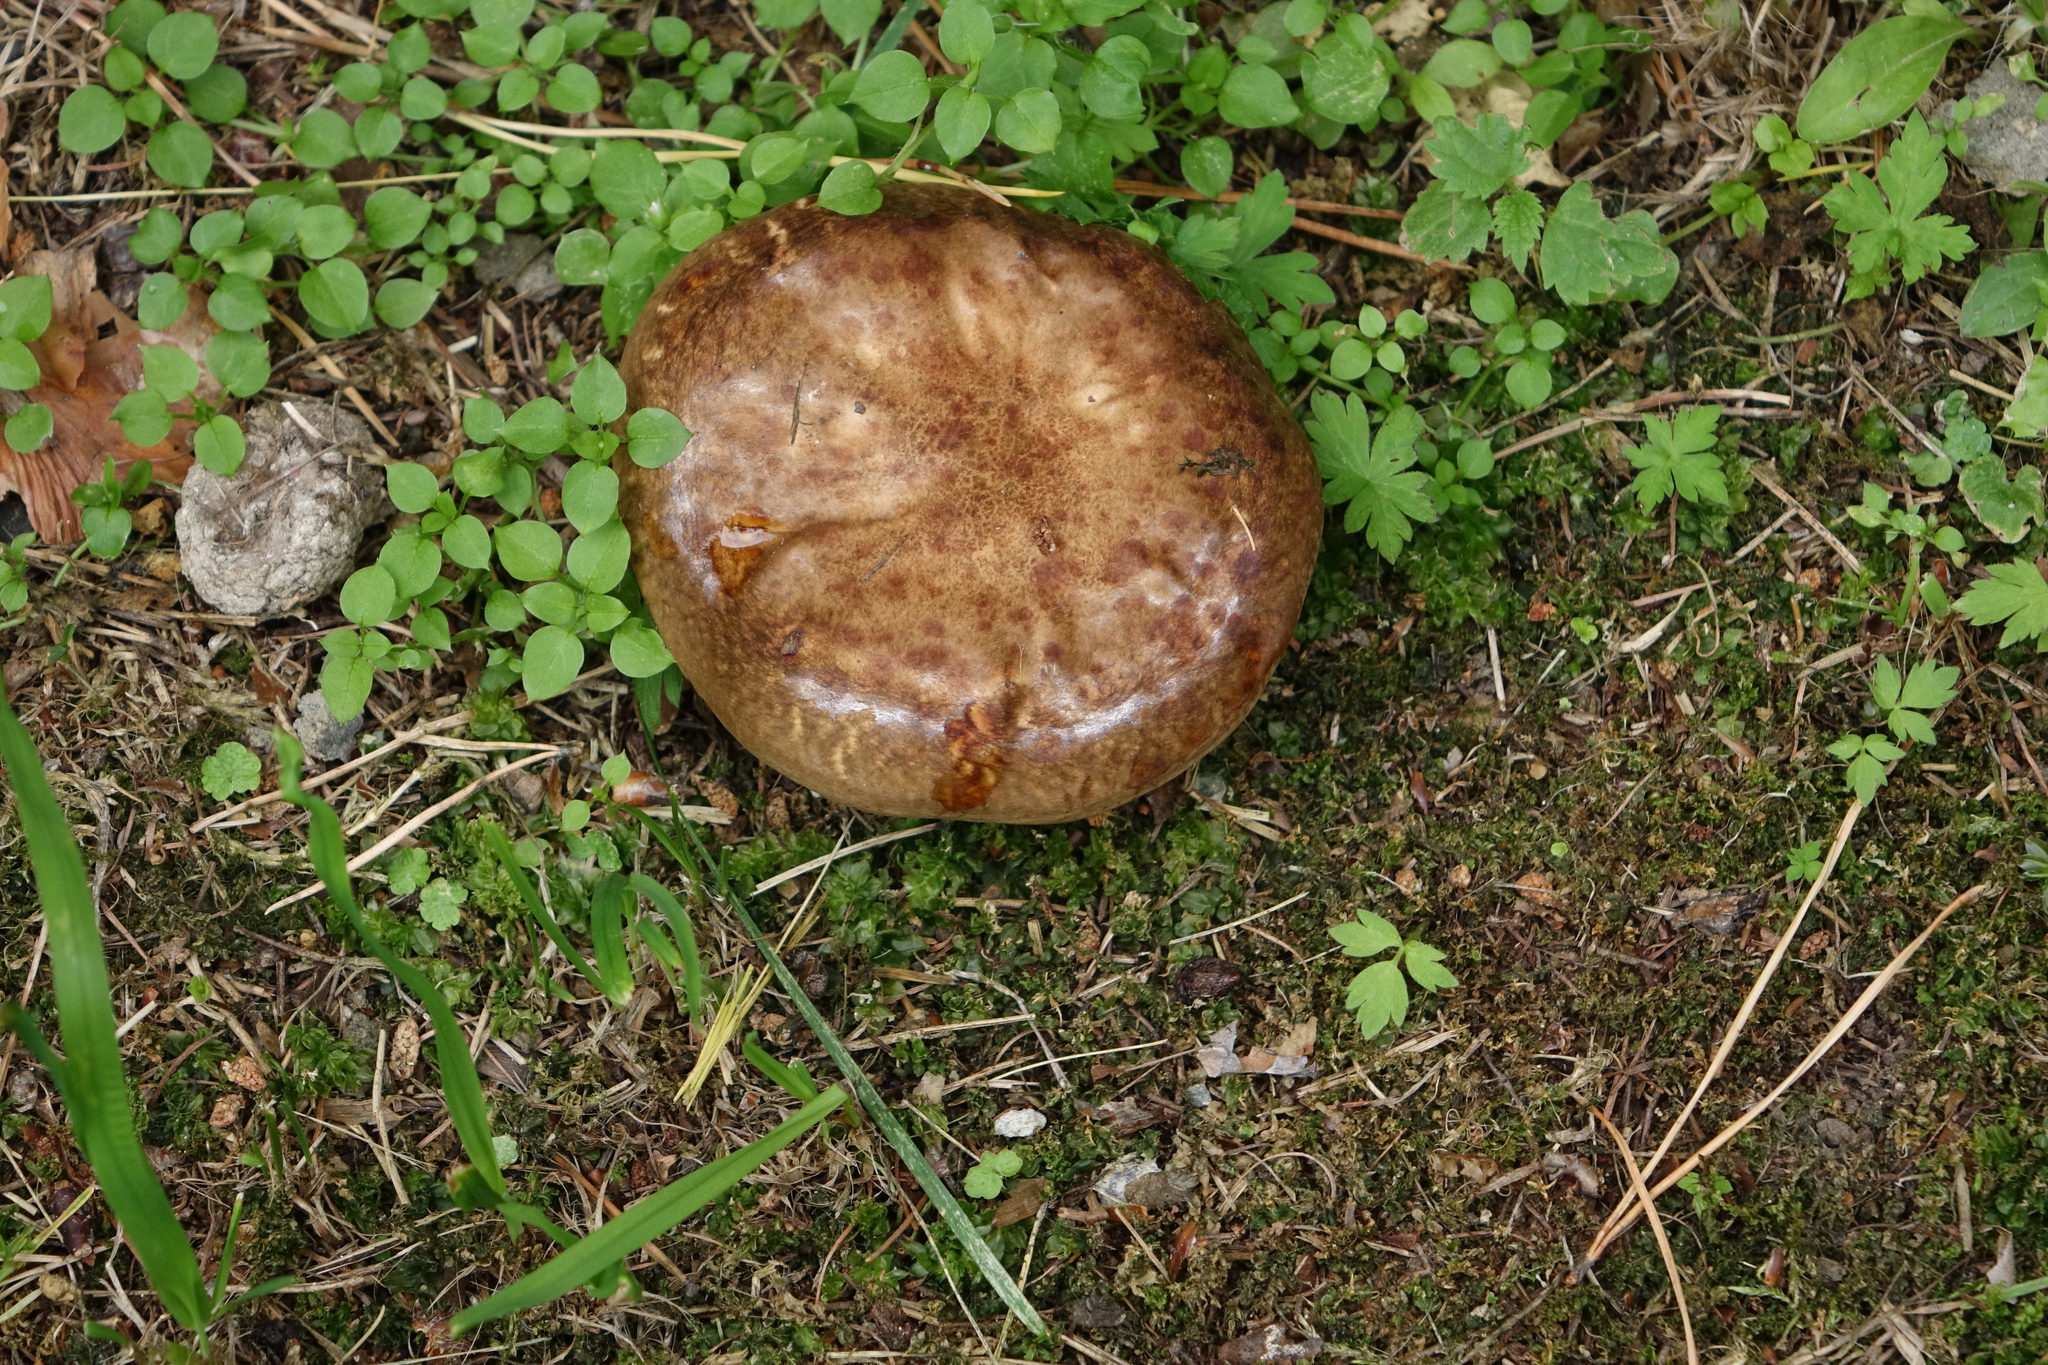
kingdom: Fungi
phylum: Basidiomycota
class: Agaricomycetes
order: Boletales
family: Paxillaceae
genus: Paxillus
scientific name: Paxillus involutus
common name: Brown roll rim
